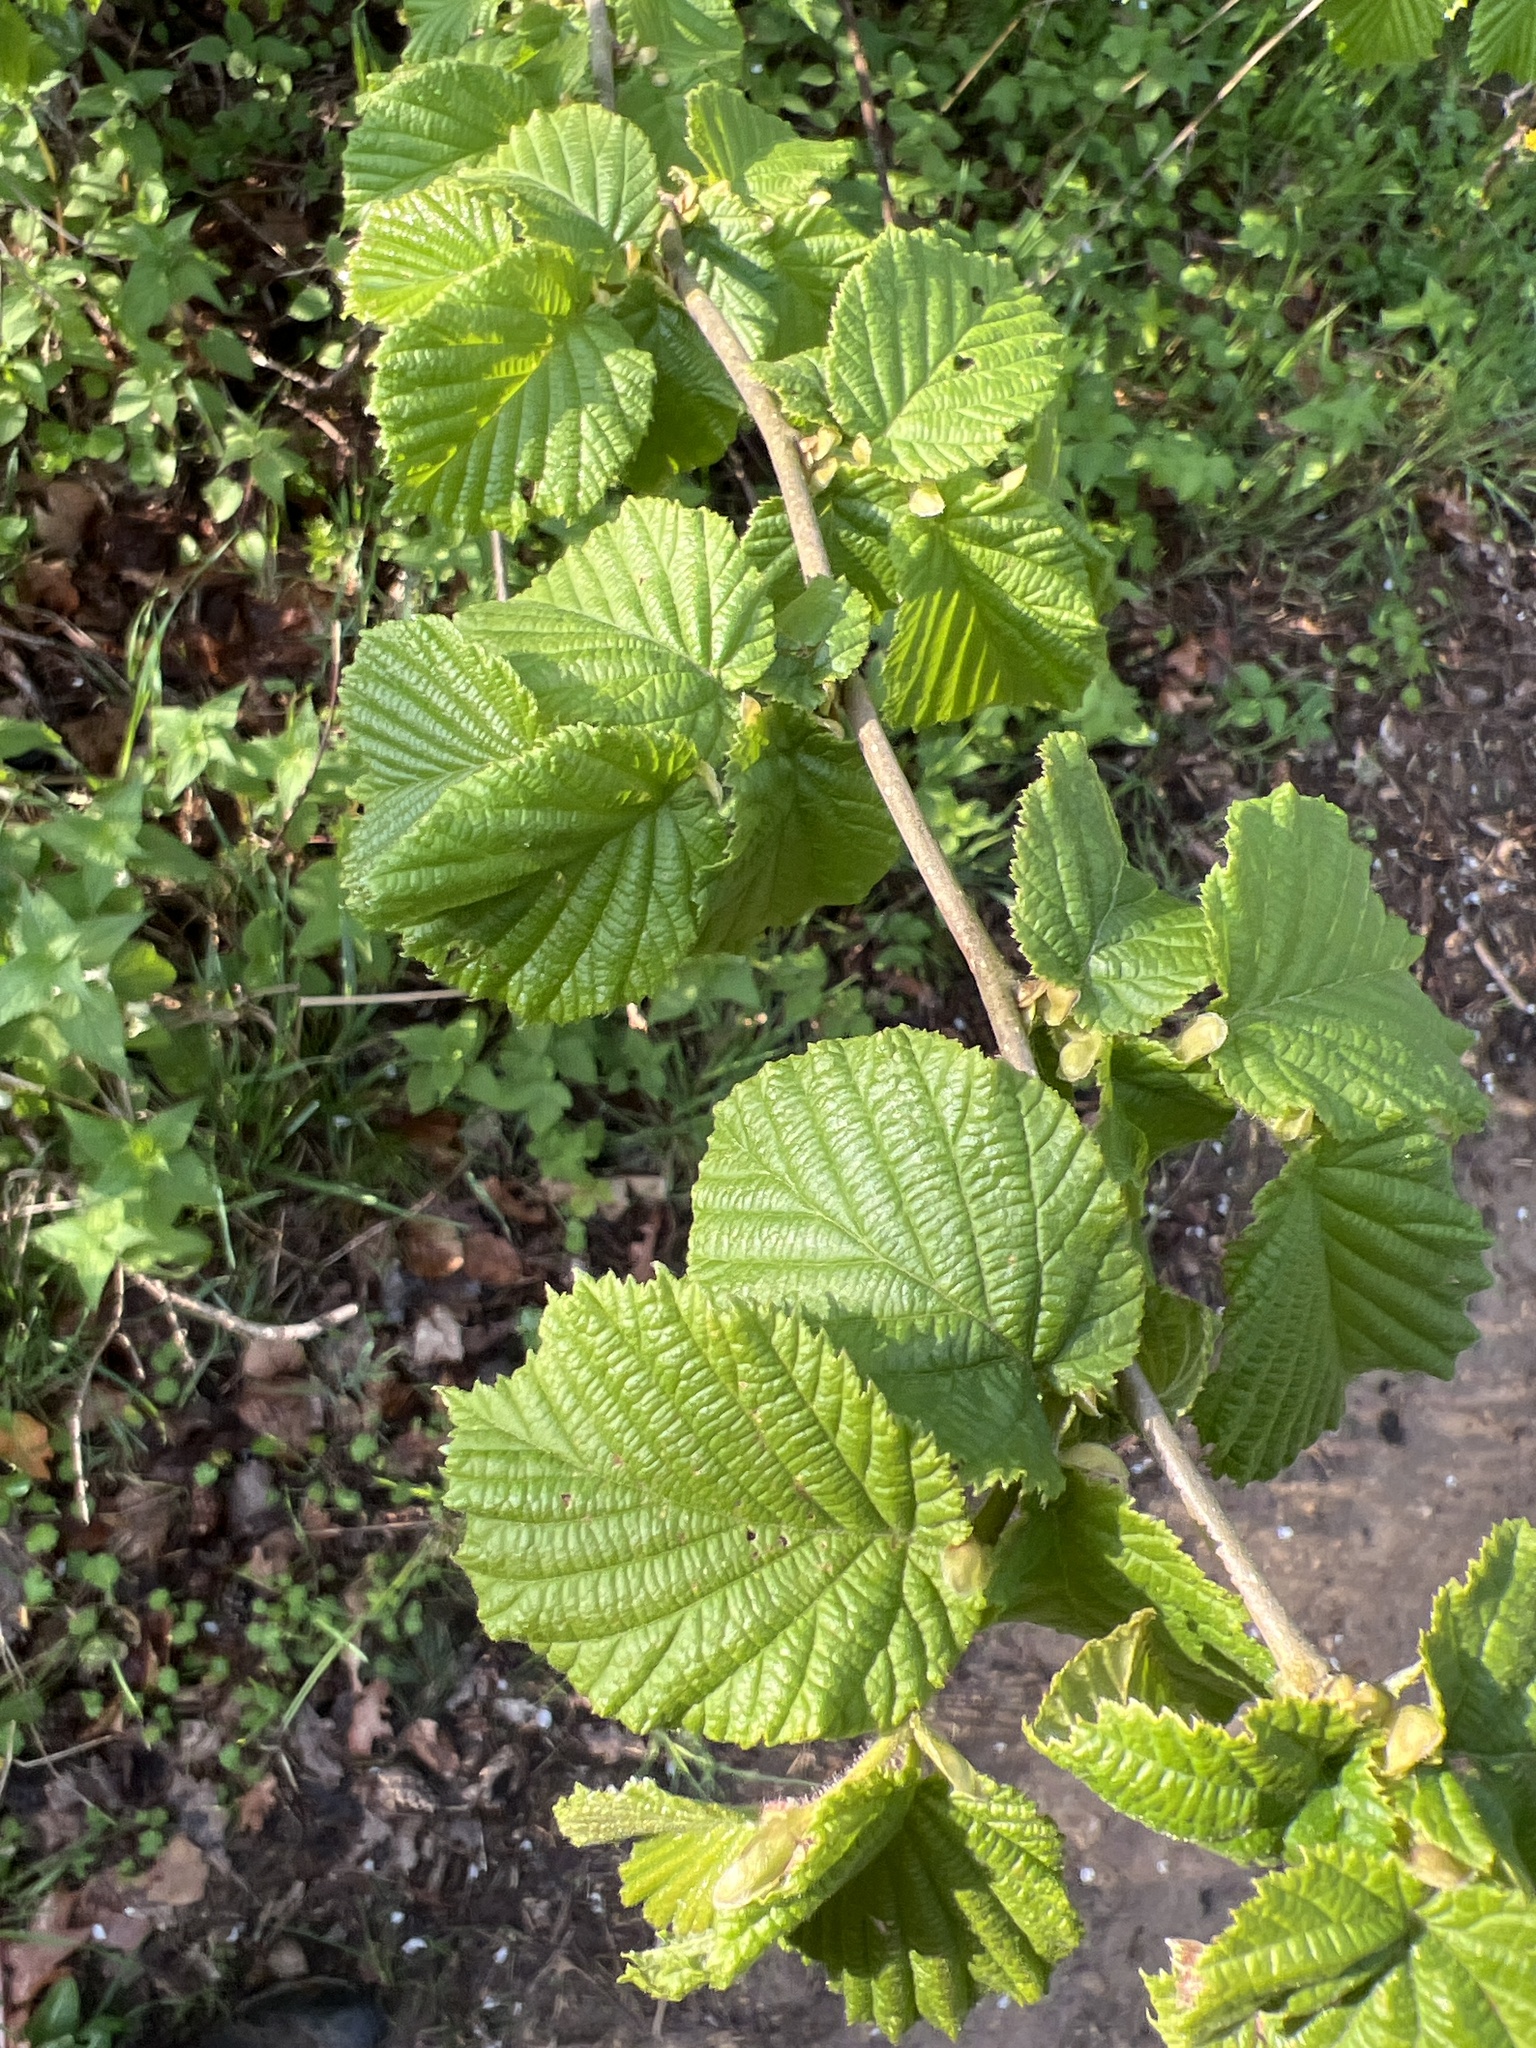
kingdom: Plantae
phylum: Tracheophyta
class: Magnoliopsida
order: Fagales
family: Betulaceae
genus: Corylus
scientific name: Corylus avellana
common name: European hazel
